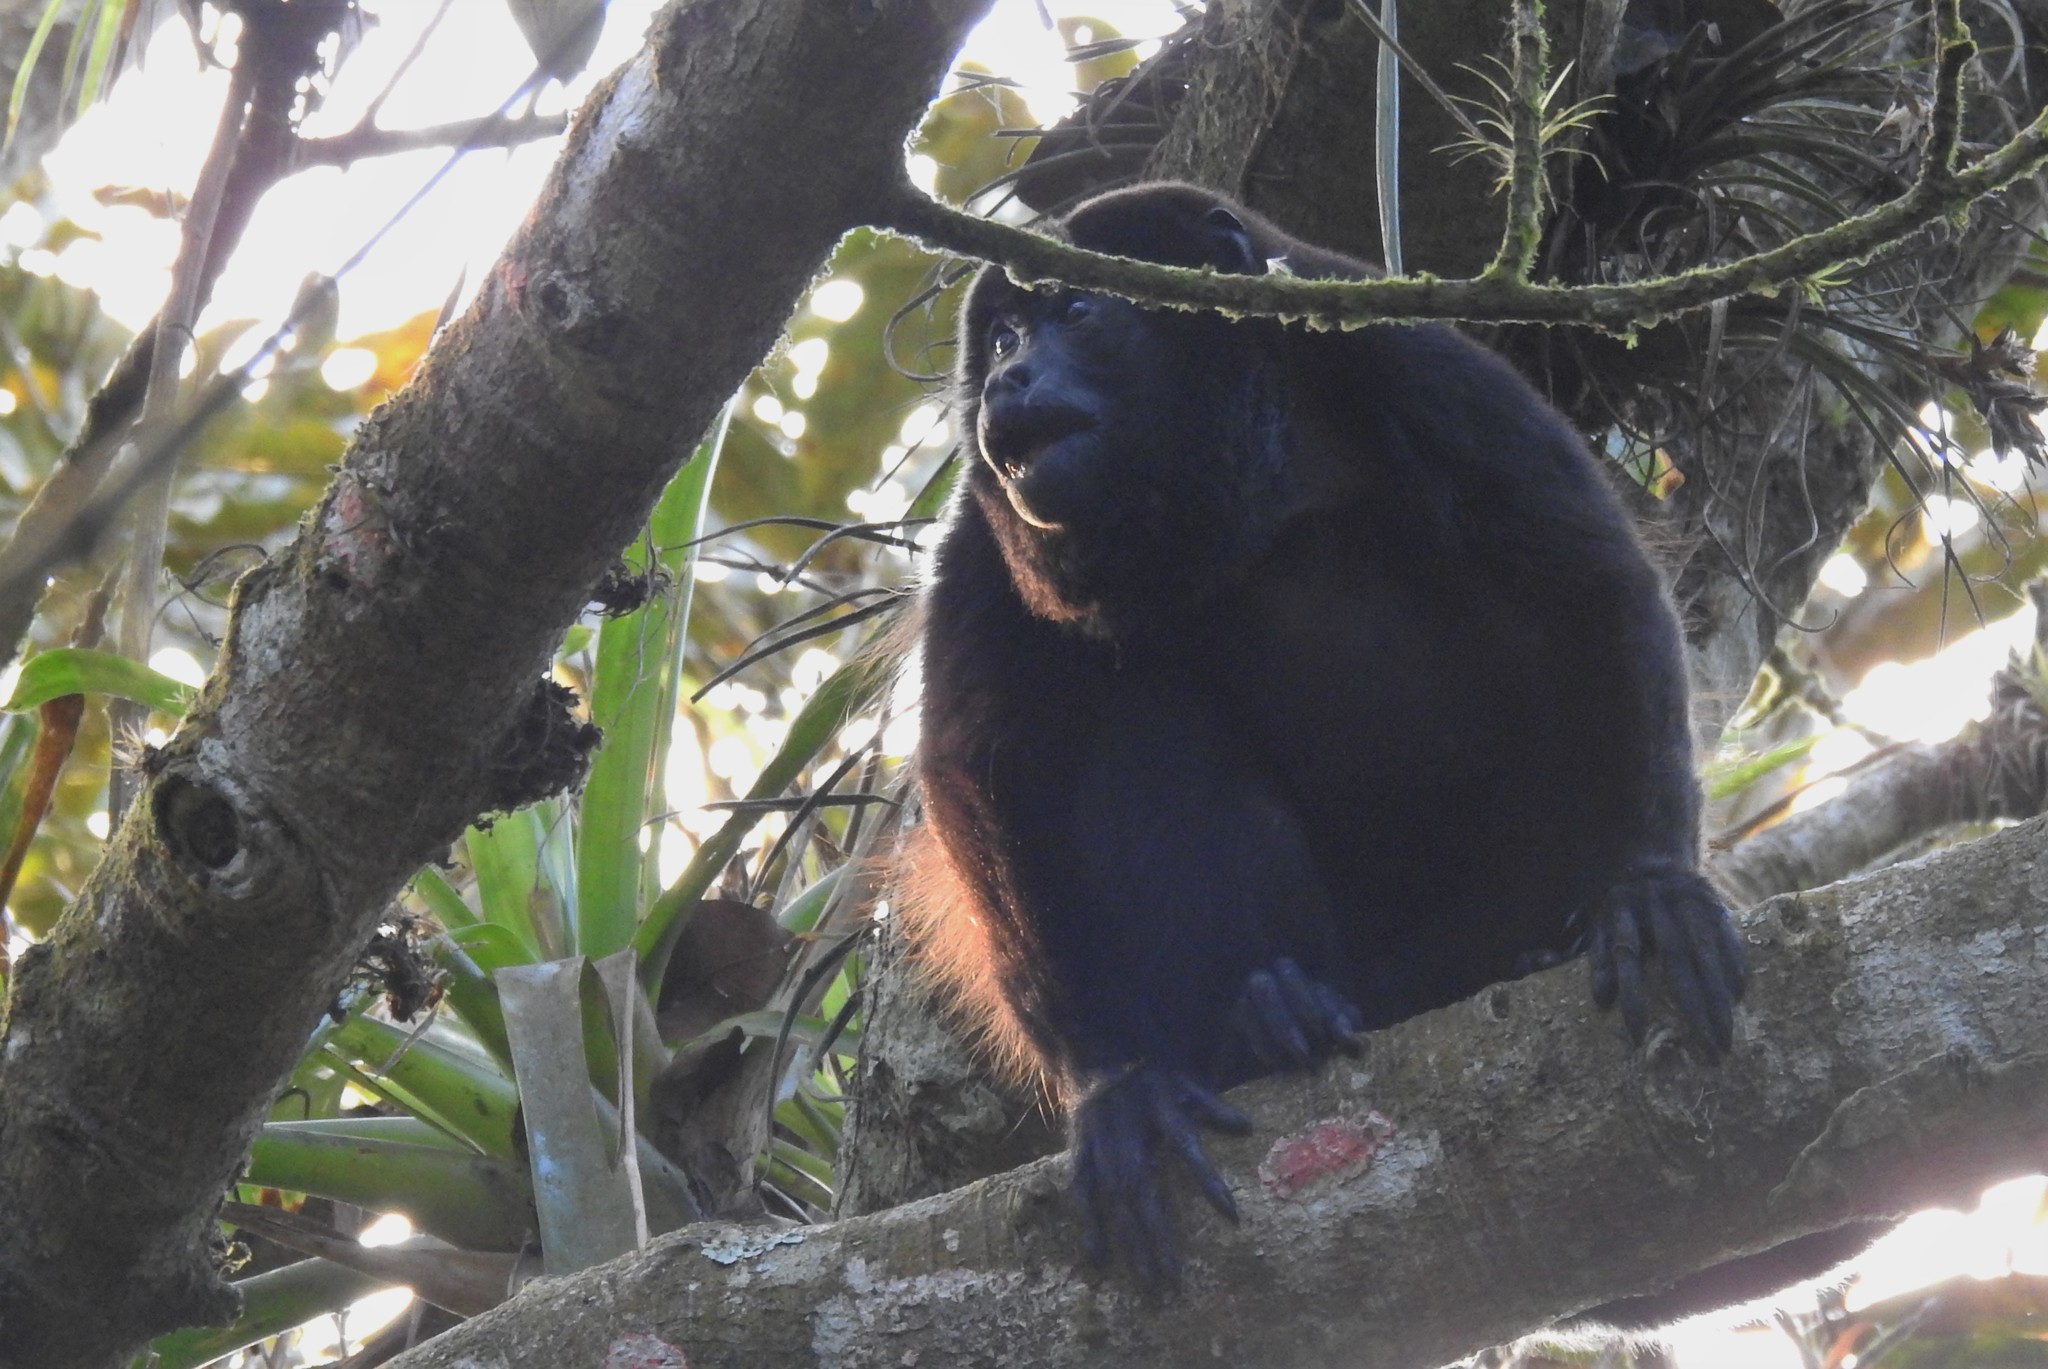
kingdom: Animalia
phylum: Chordata
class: Mammalia
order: Primates
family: Atelidae
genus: Alouatta
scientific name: Alouatta palliata
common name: Mantled howler
